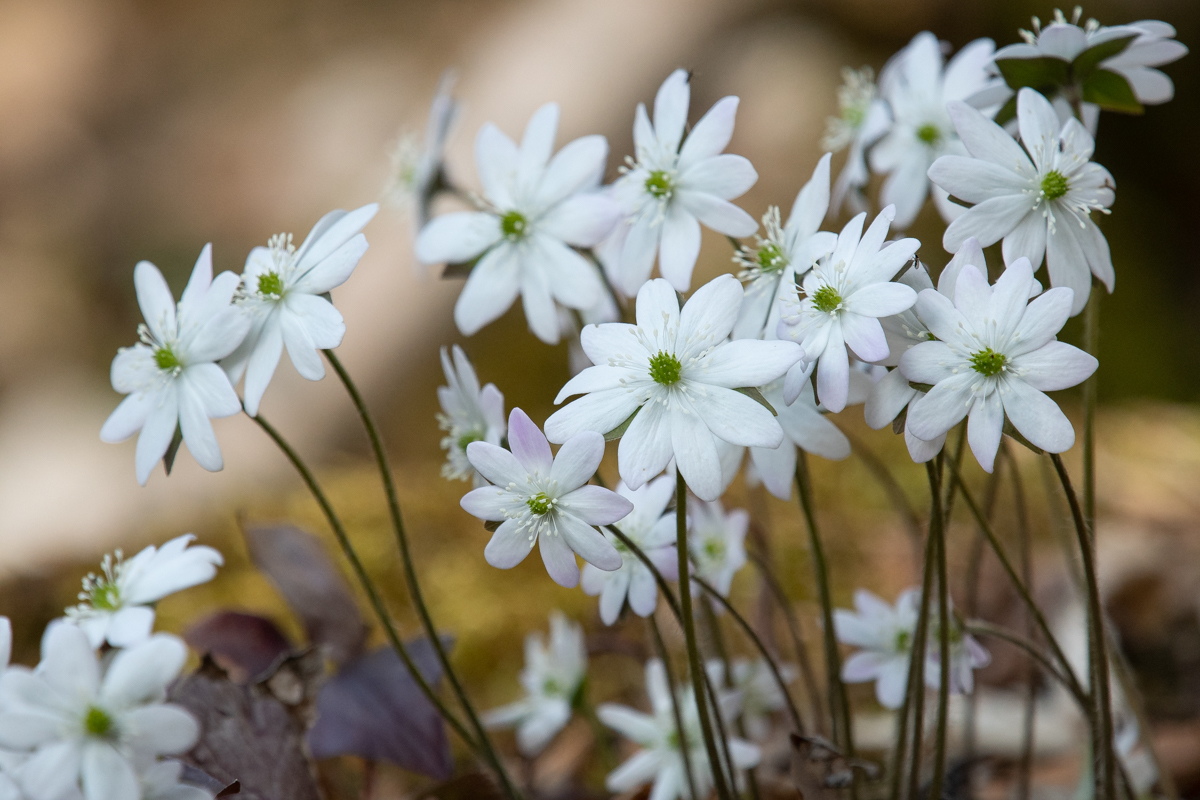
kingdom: Plantae
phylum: Tracheophyta
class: Magnoliopsida
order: Ranunculales
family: Ranunculaceae
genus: Hepatica
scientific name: Hepatica acutiloba
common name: Sharp-lobed hepatica
